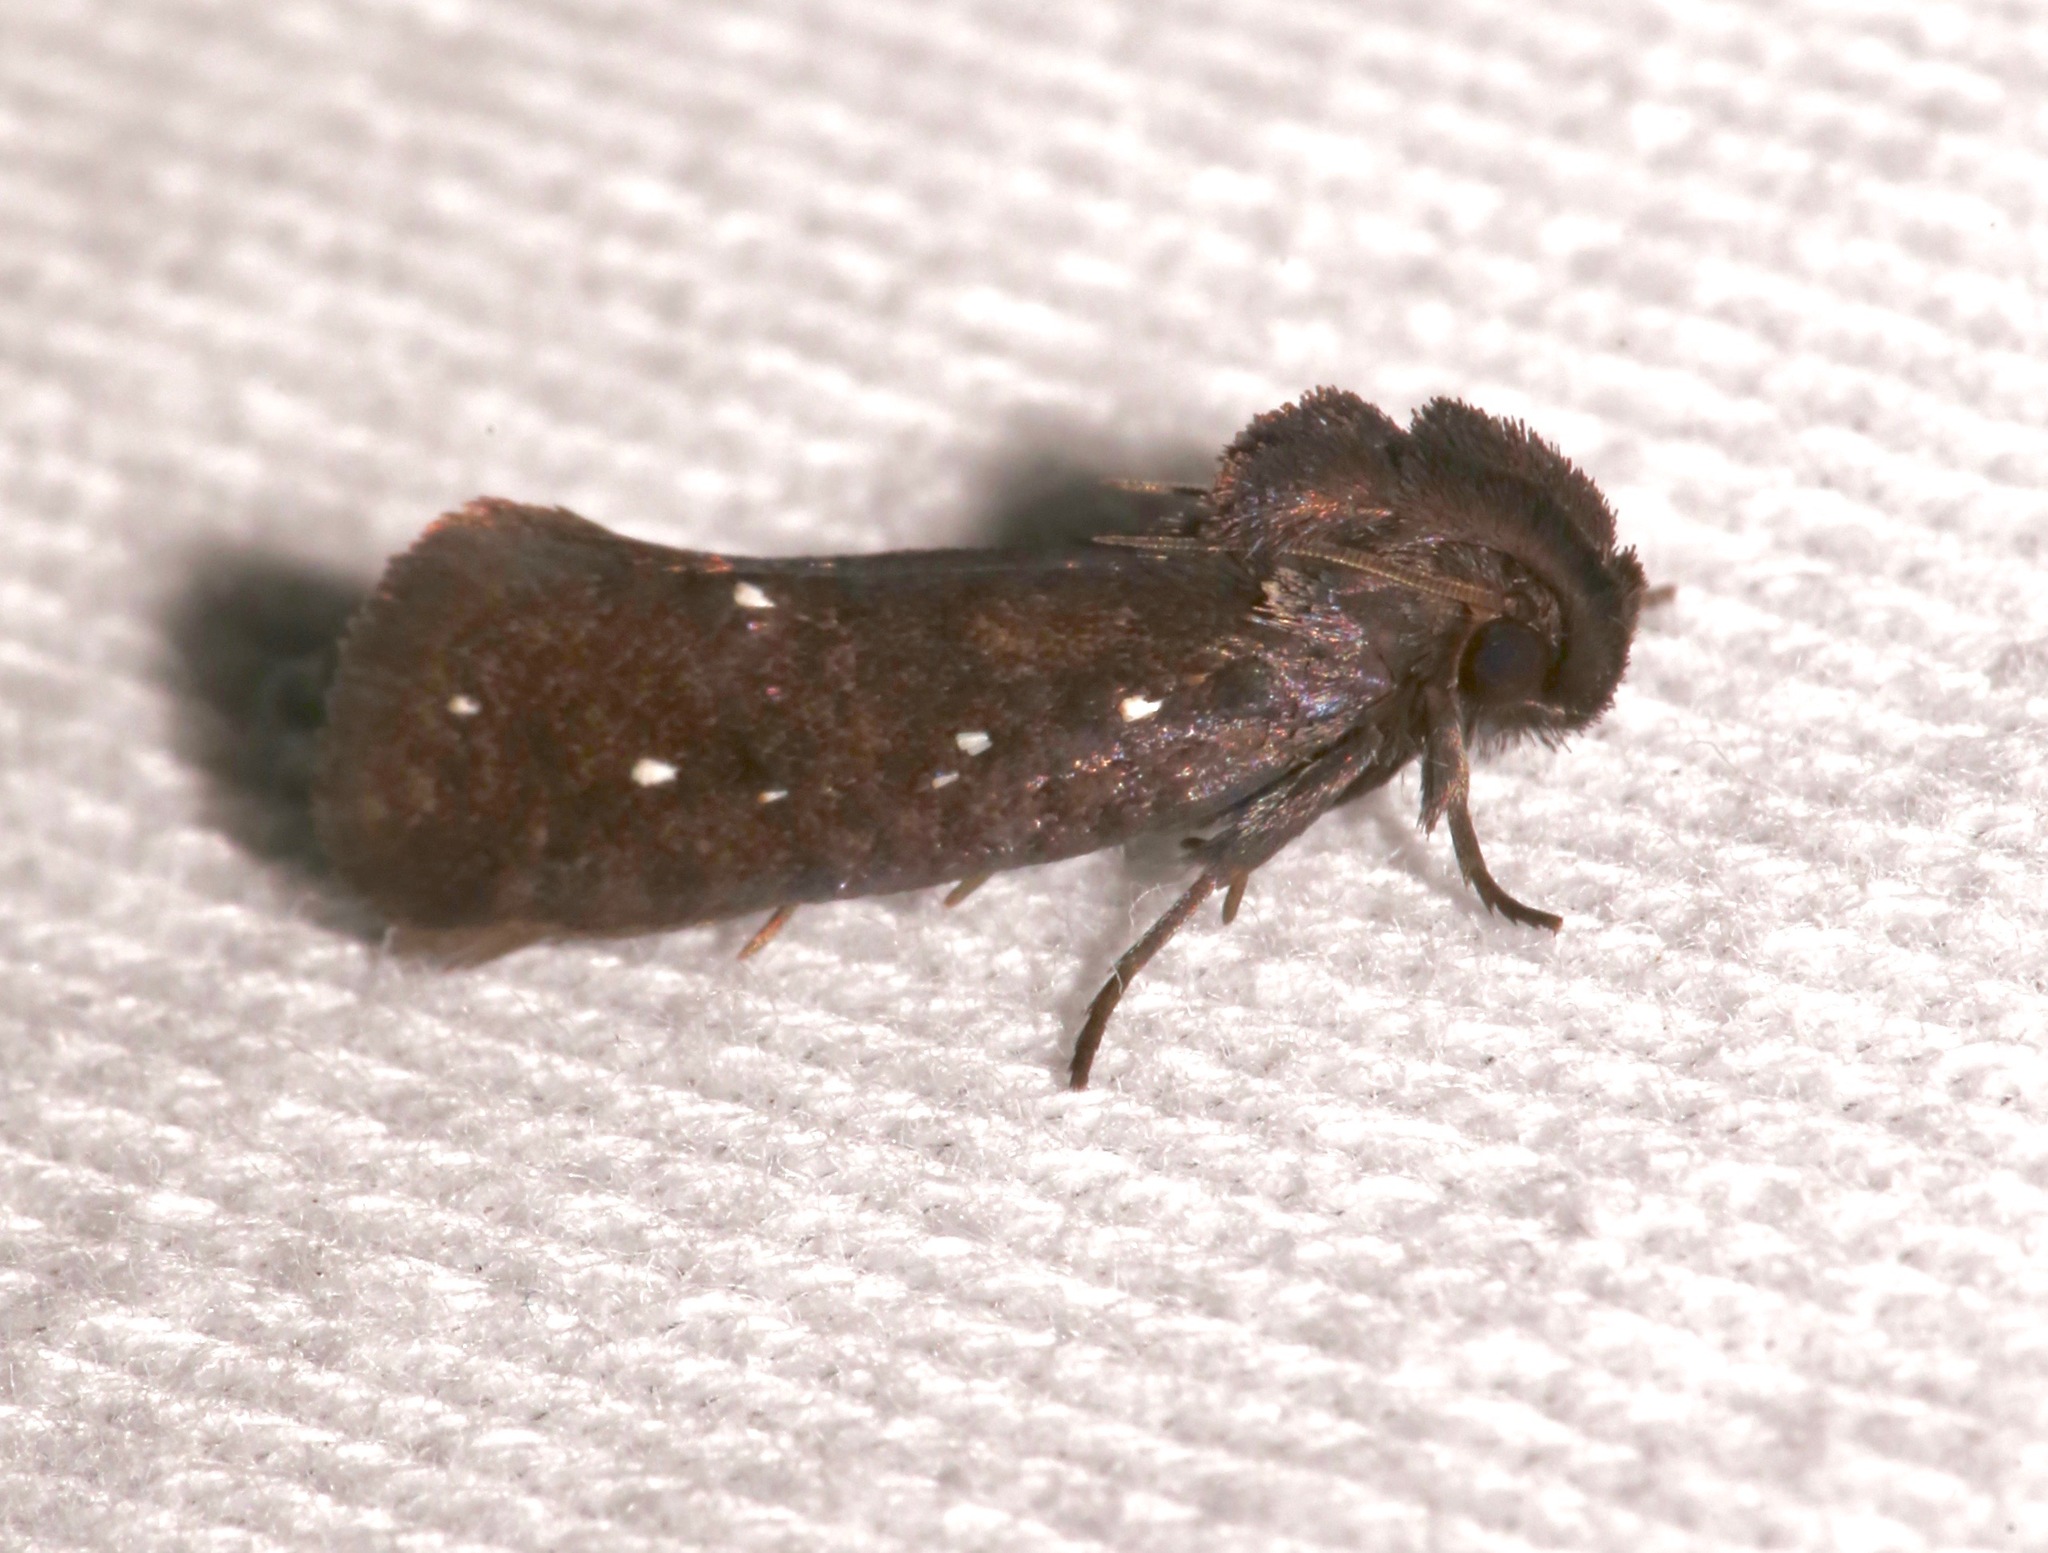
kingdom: Animalia
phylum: Arthropoda
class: Insecta
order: Lepidoptera
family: Tineidae
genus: Acrolophus
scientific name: Acrolophus propinqua
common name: Walsingham's grass tubeworm moth
